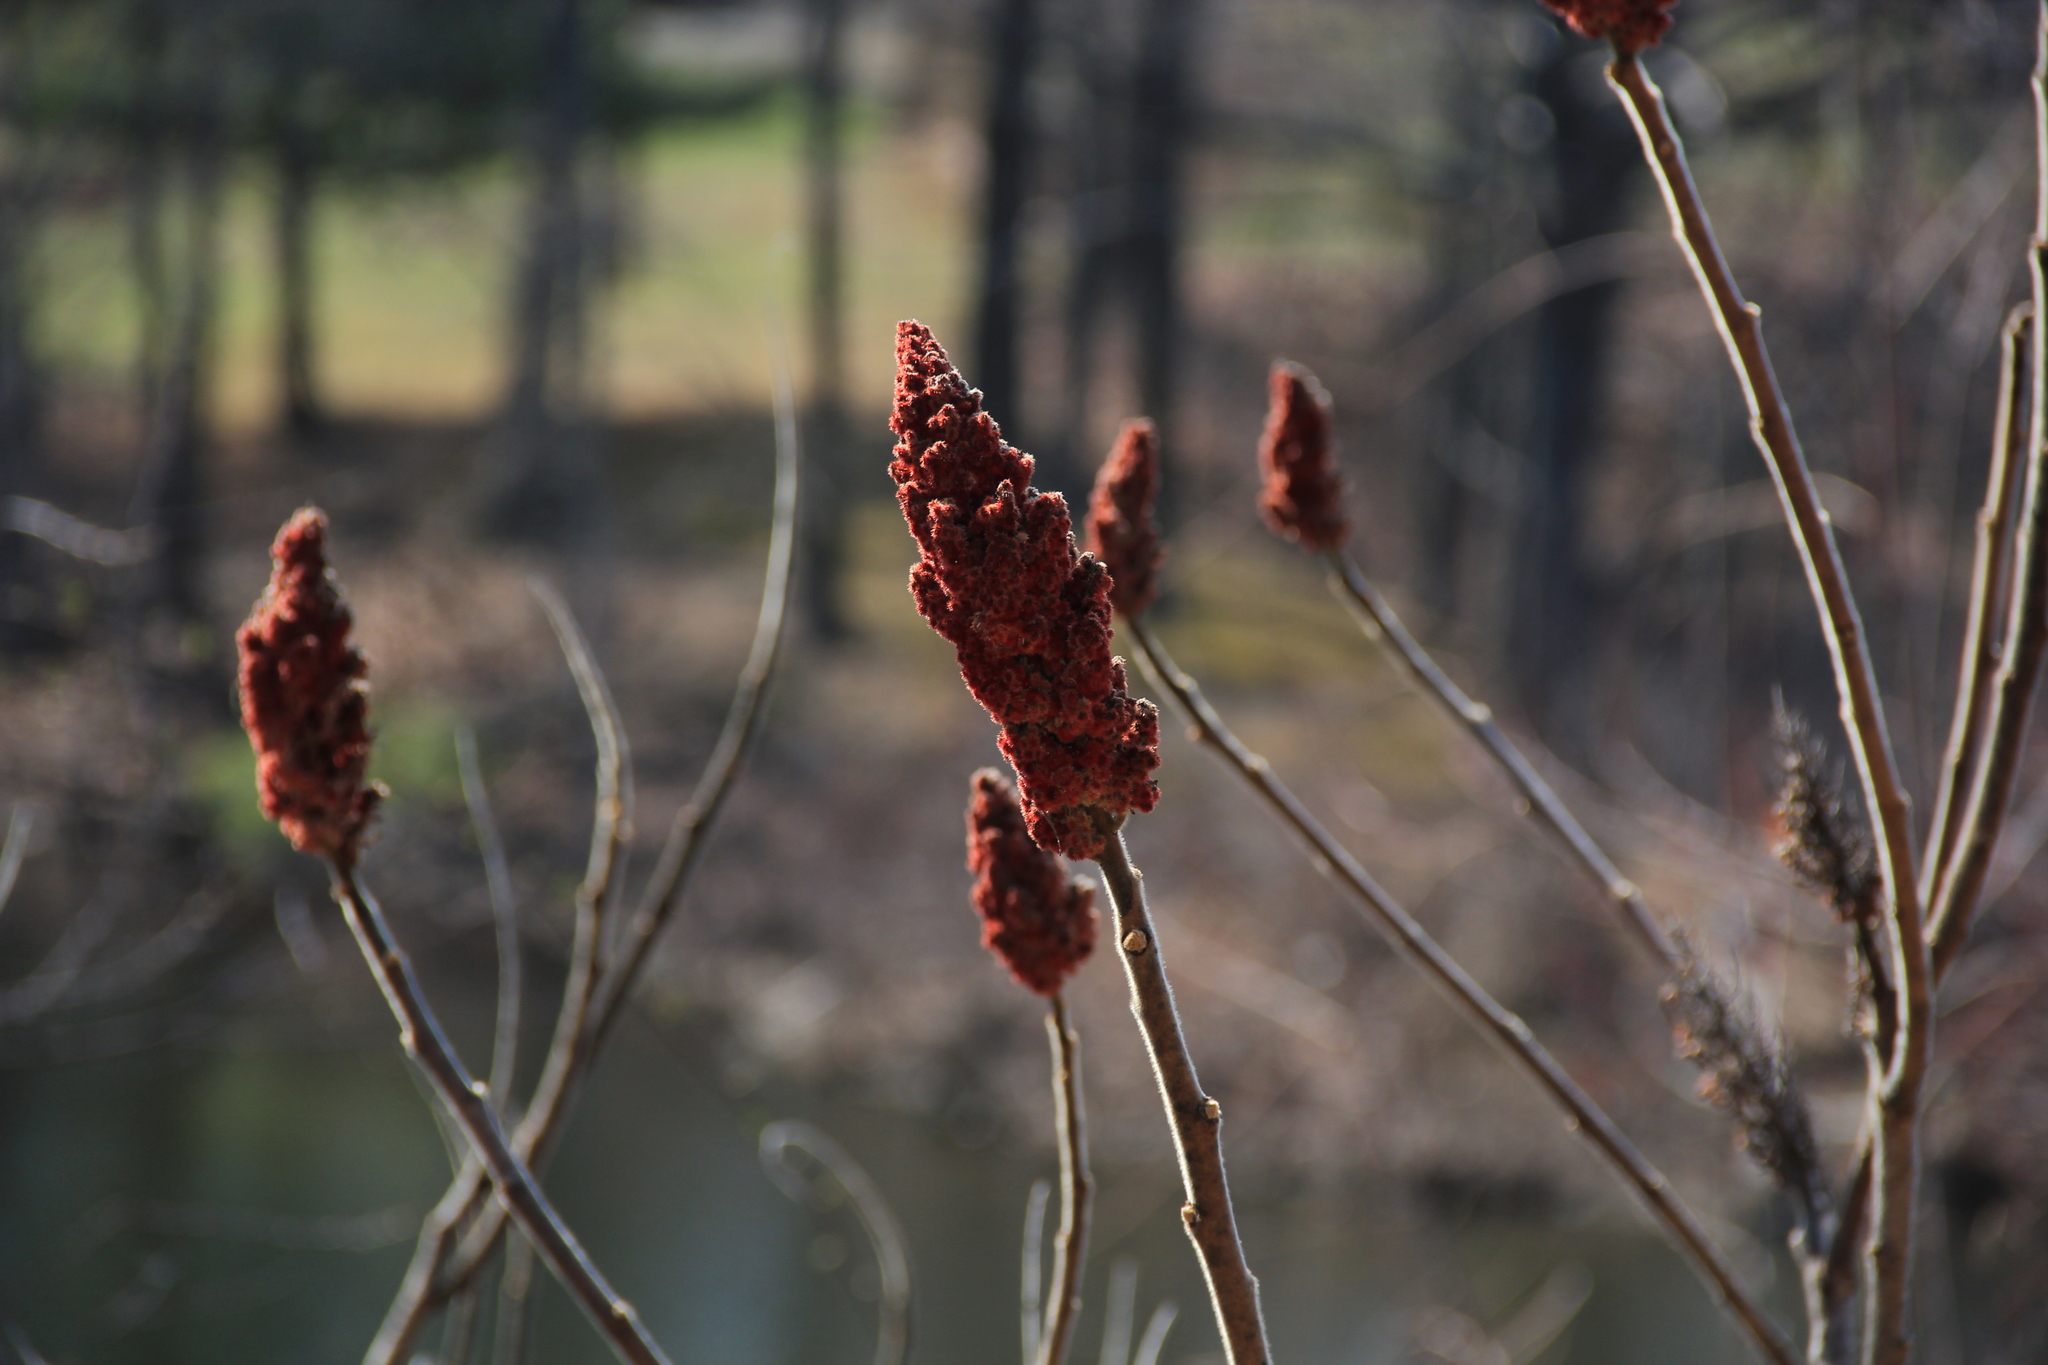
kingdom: Plantae
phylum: Tracheophyta
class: Magnoliopsida
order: Sapindales
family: Anacardiaceae
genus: Rhus
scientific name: Rhus typhina
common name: Staghorn sumac
